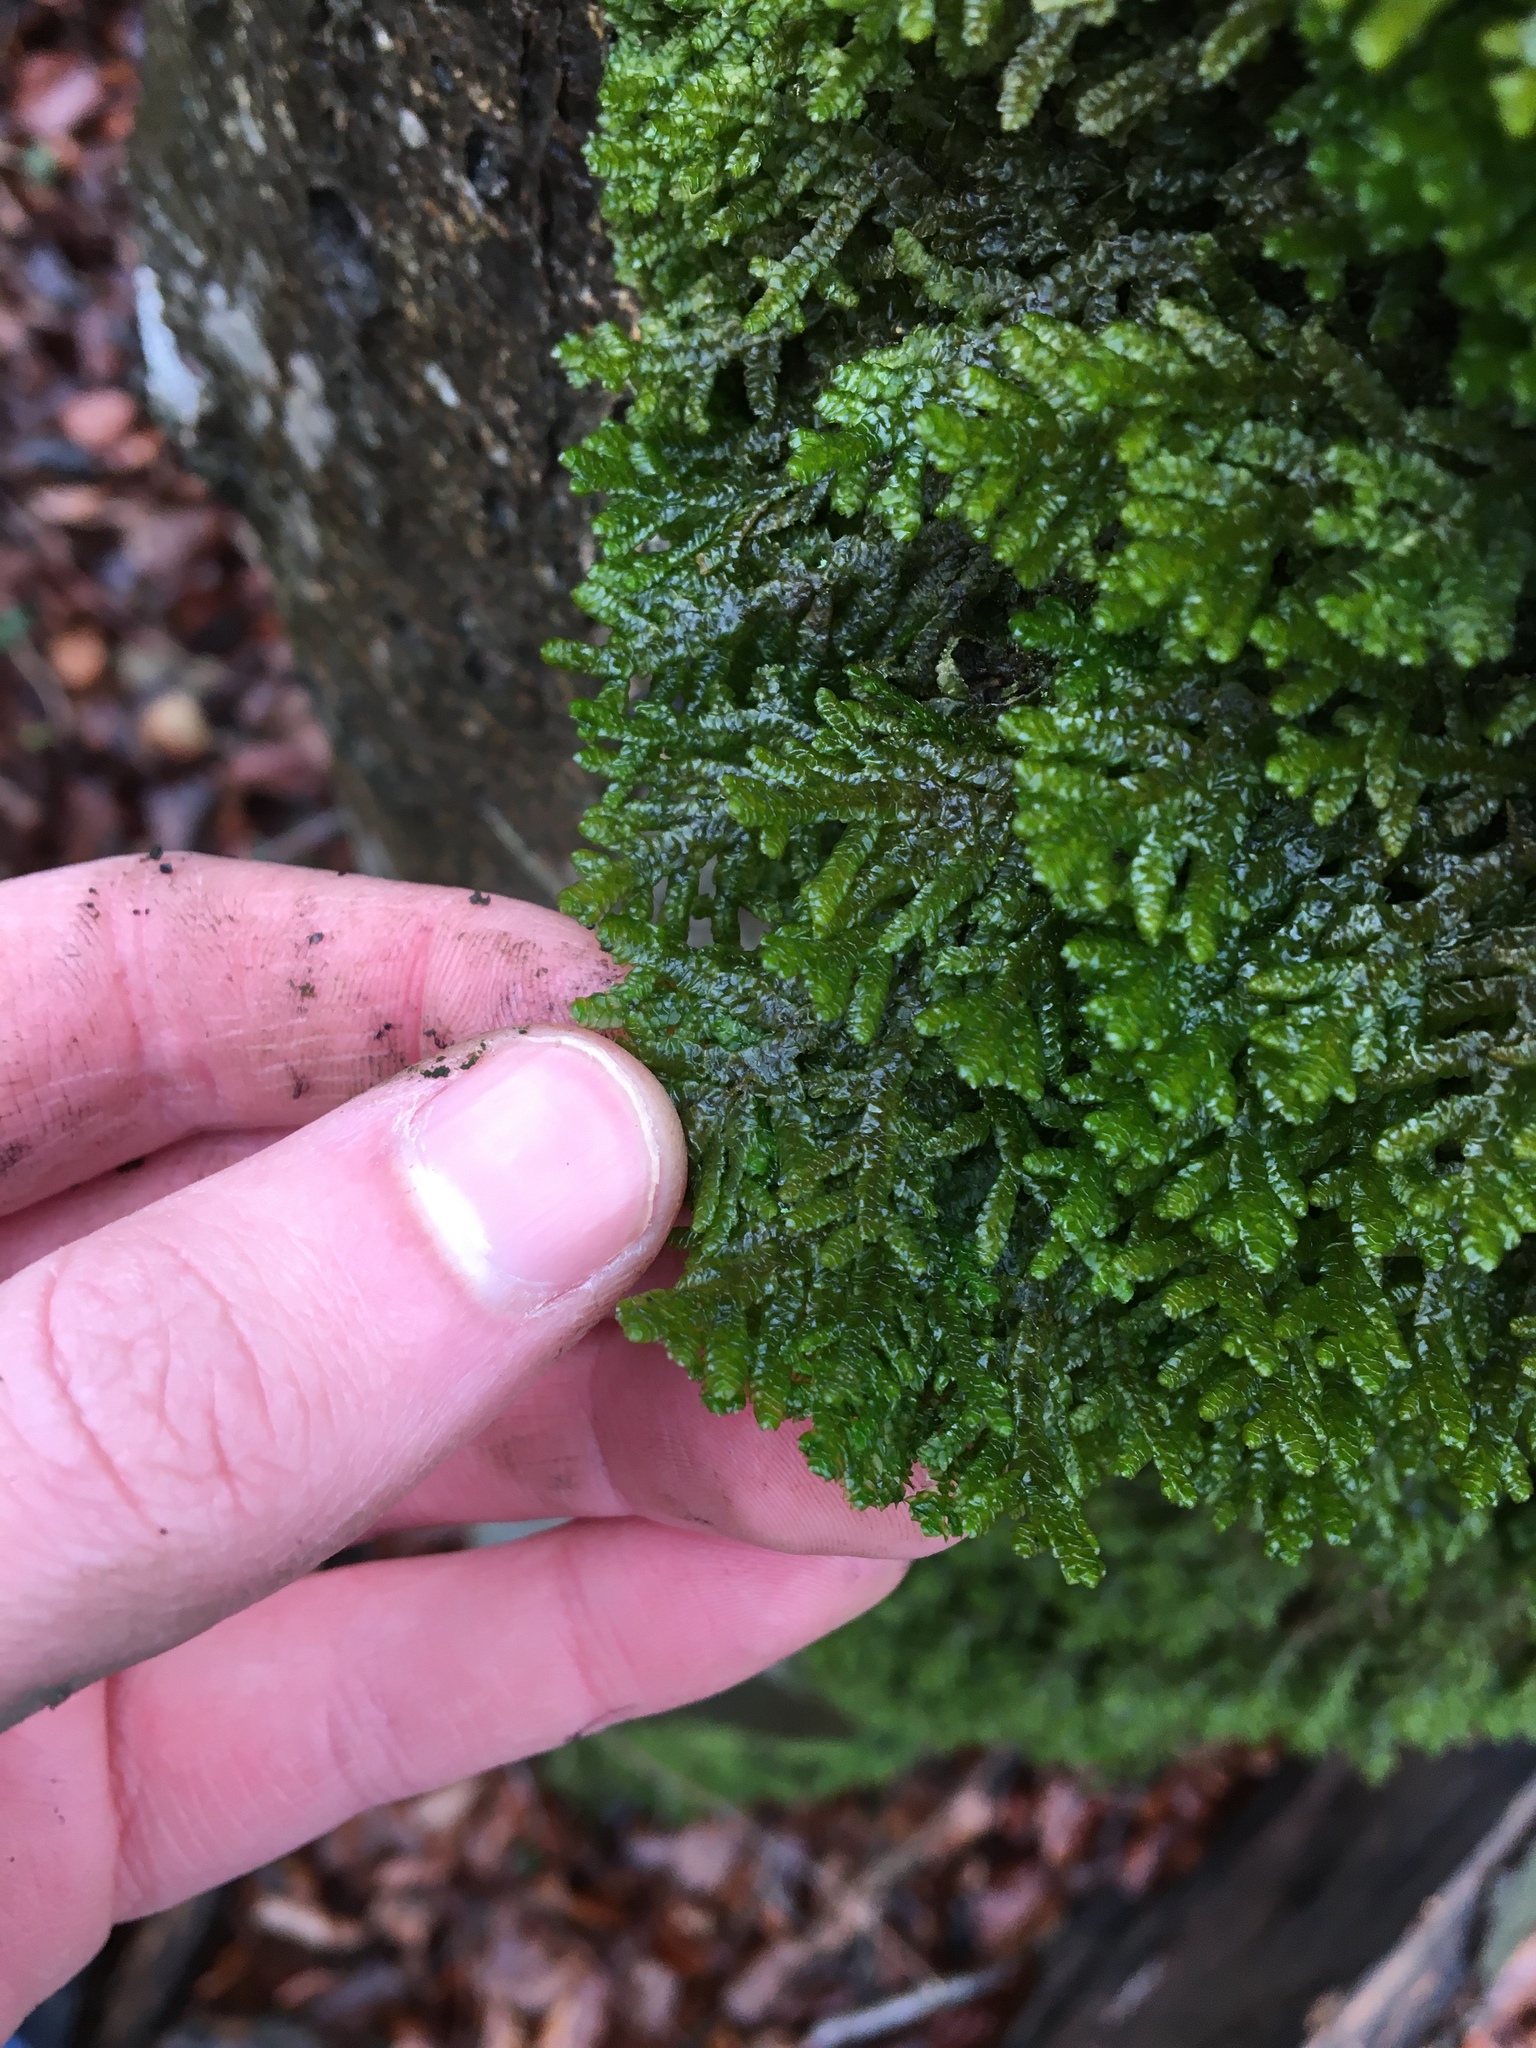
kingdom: Plantae
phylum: Marchantiophyta
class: Jungermanniopsida
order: Porellales
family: Porellaceae
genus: Porella
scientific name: Porella platyphylla
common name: Wall scalewort
